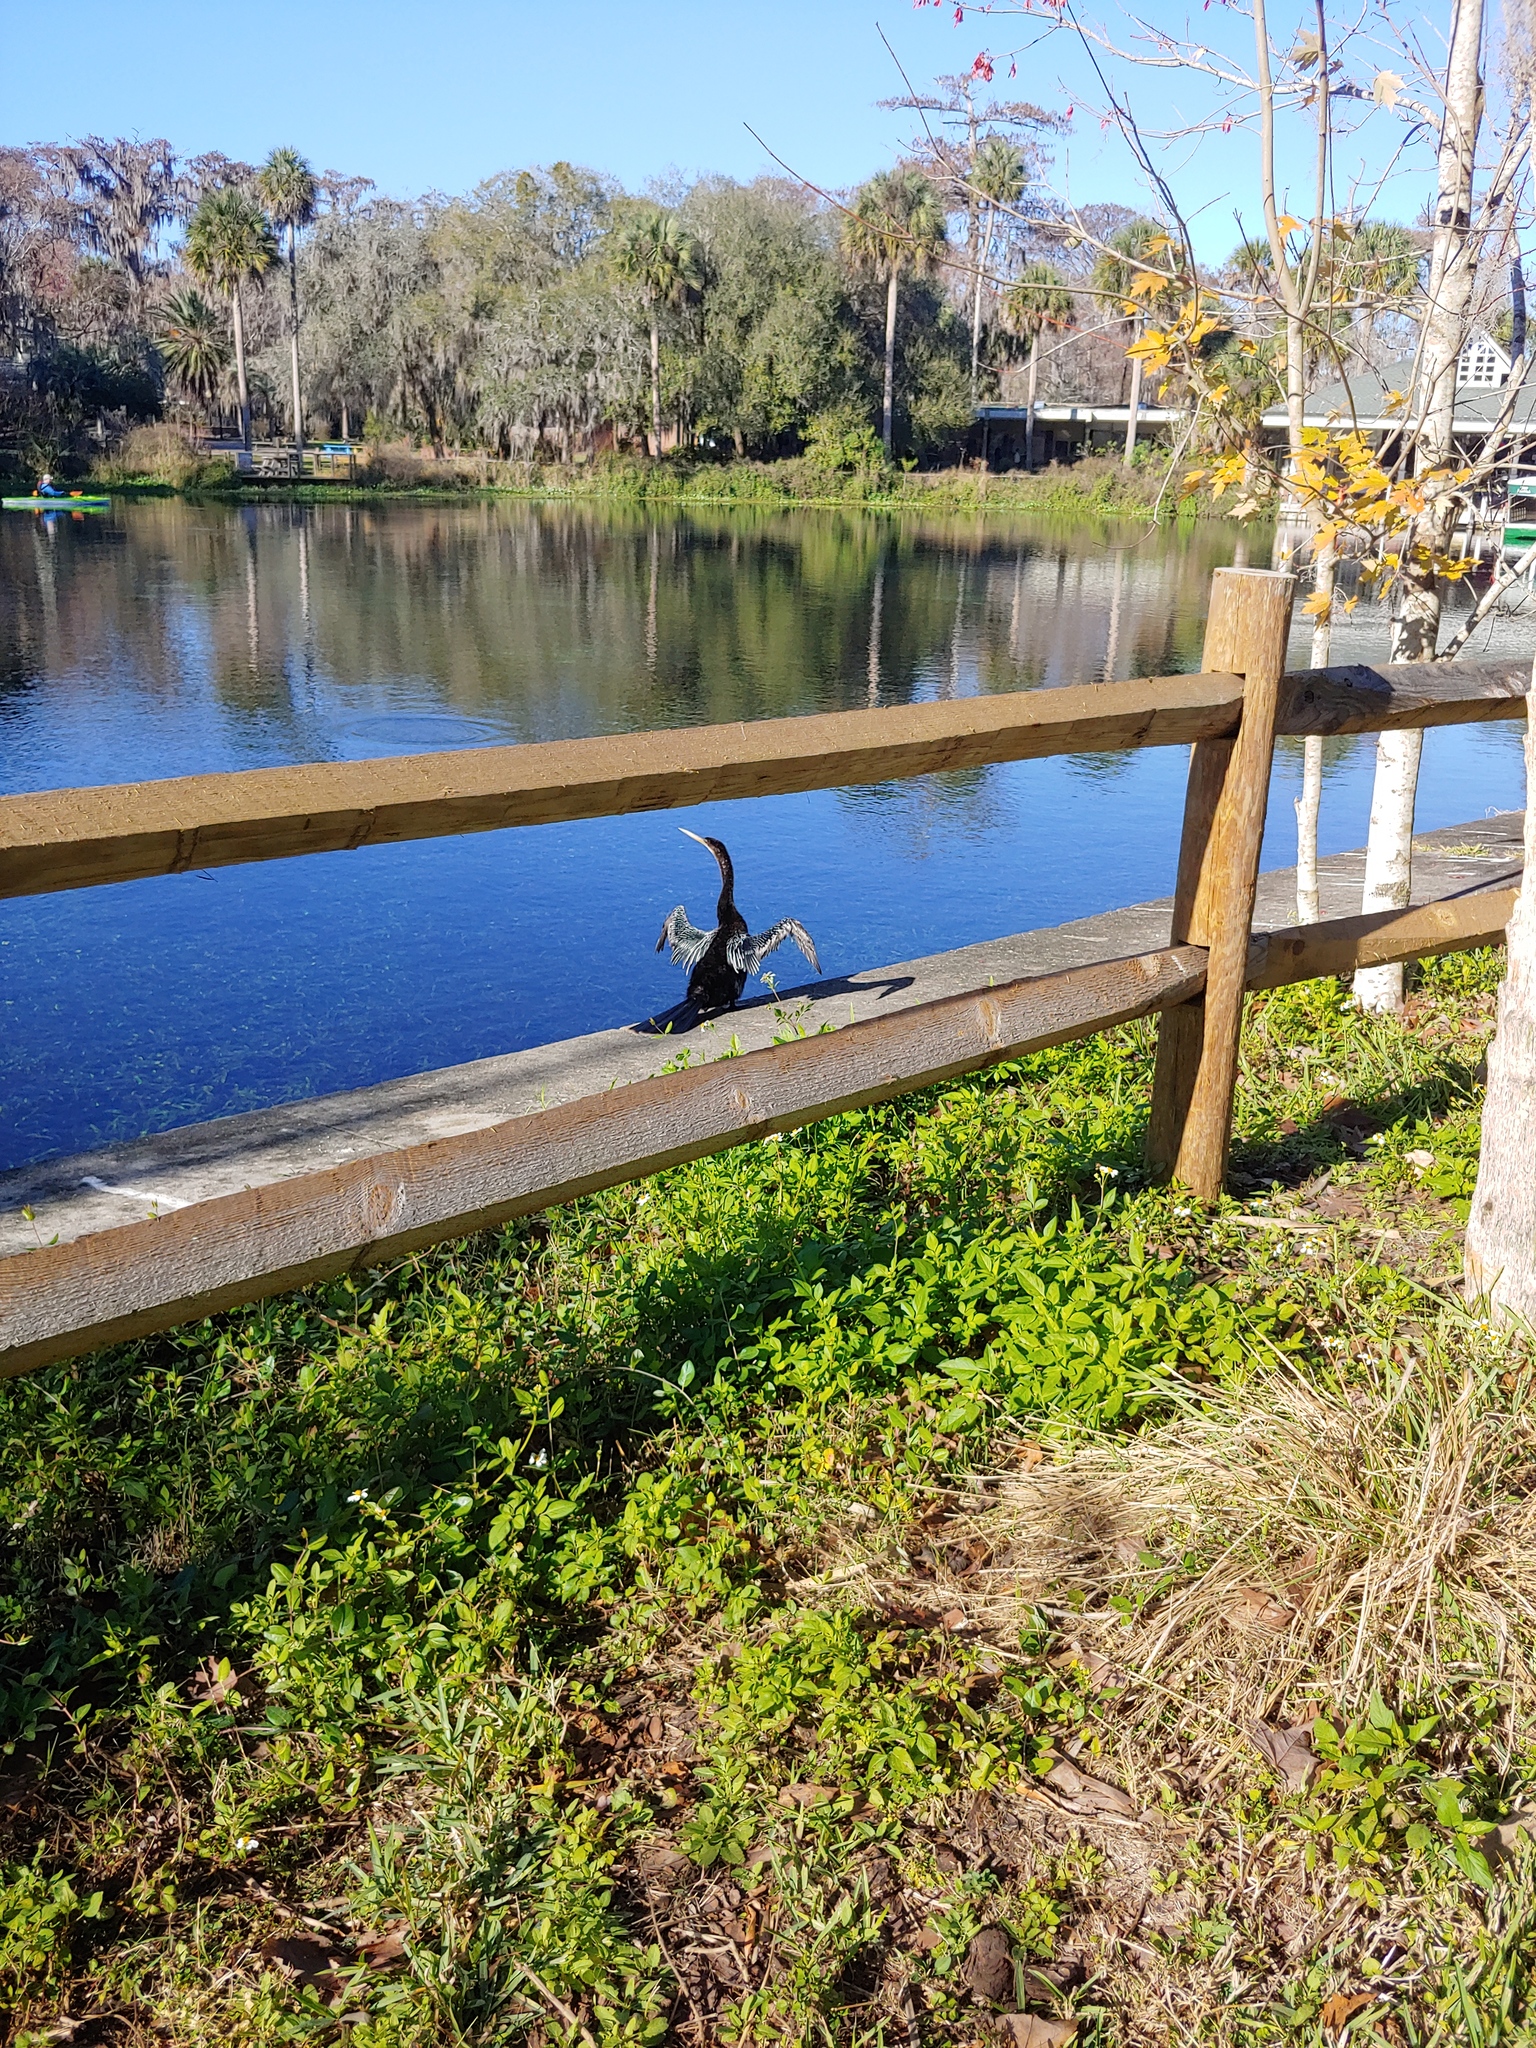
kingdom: Animalia
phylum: Chordata
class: Aves
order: Suliformes
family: Anhingidae
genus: Anhinga
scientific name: Anhinga anhinga
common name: Anhinga
